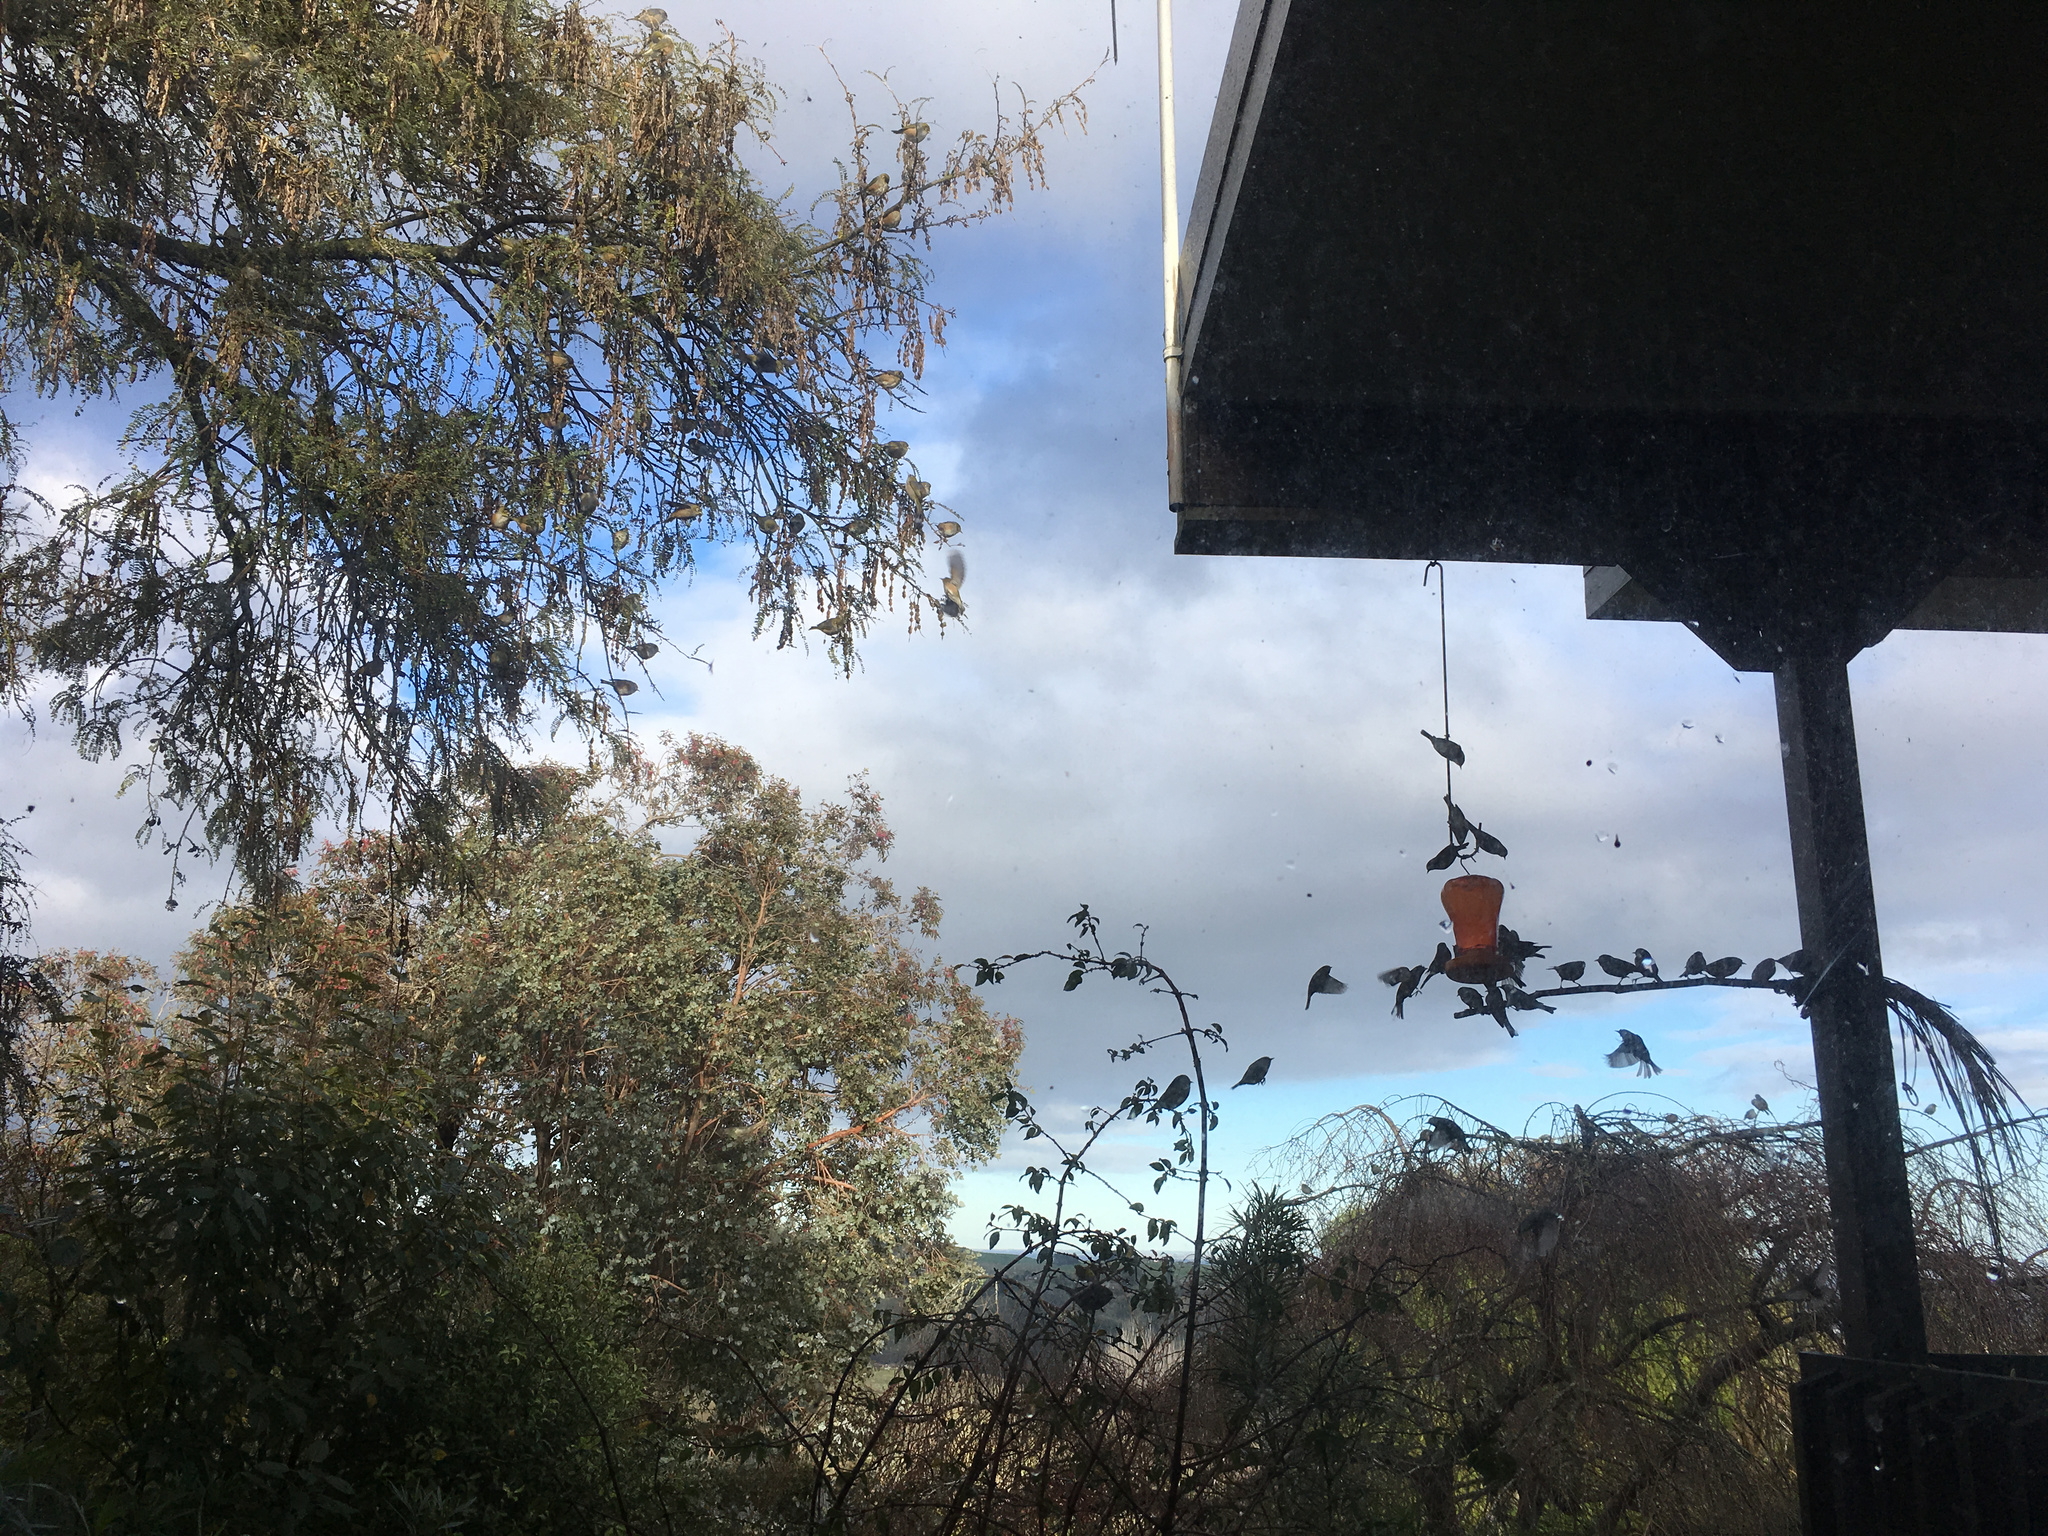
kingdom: Animalia
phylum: Chordata
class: Aves
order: Passeriformes
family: Zosteropidae
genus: Zosterops
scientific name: Zosterops lateralis
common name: Silvereye
